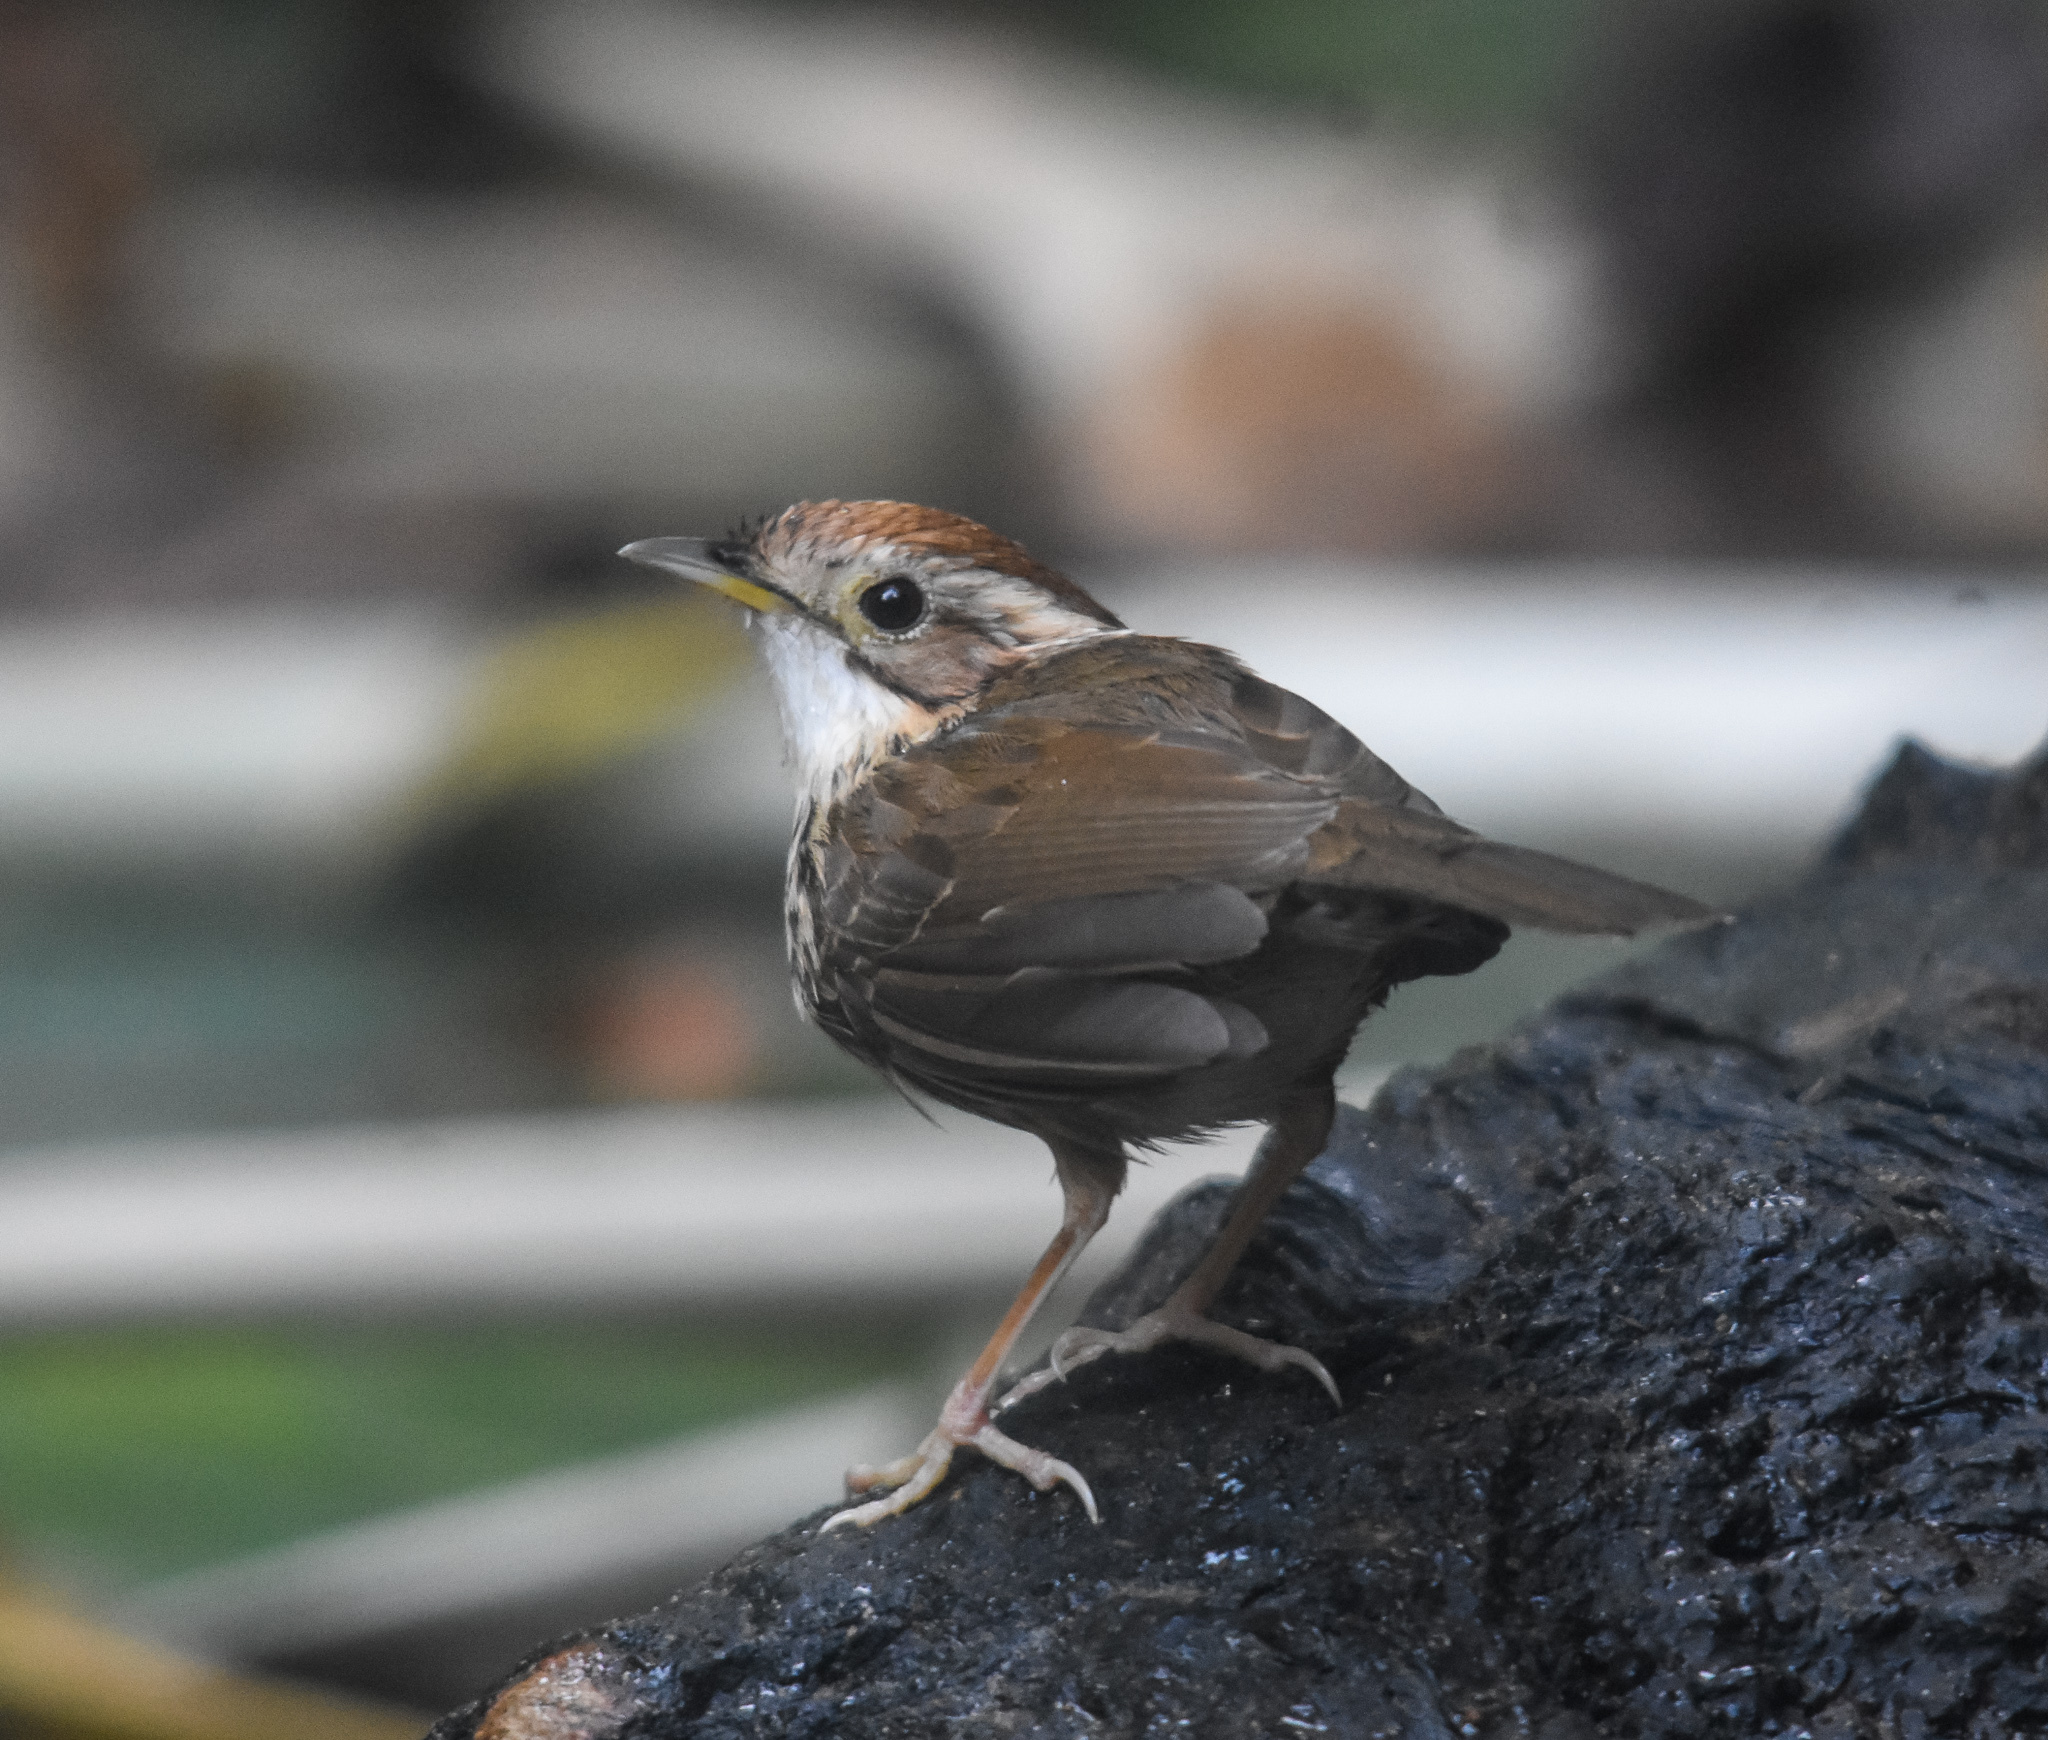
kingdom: Animalia
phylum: Chordata
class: Aves
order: Passeriformes
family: Pellorneidae
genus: Pellorneum
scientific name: Pellorneum ruficeps
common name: Puff-throated babbler
